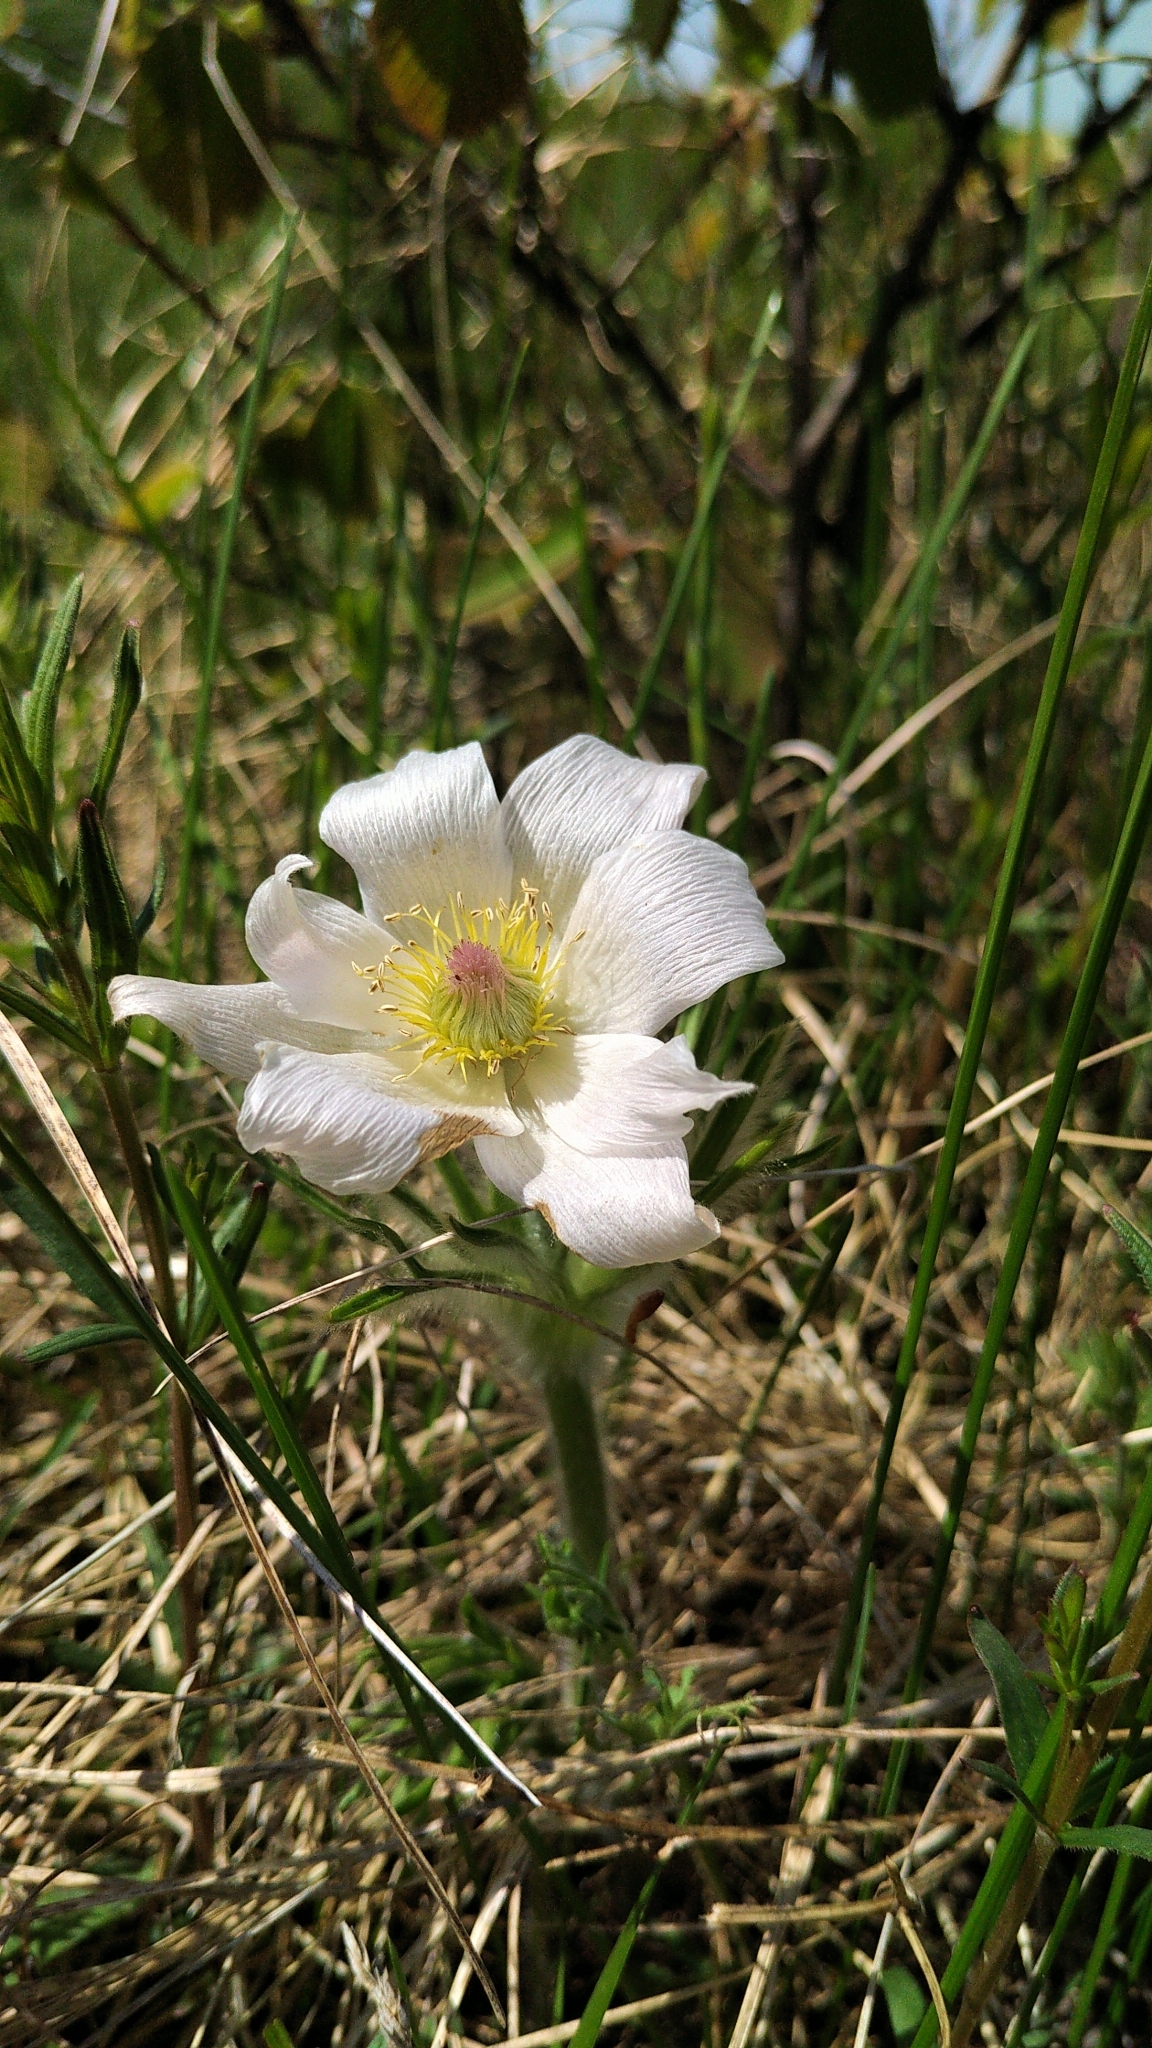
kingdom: Plantae
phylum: Tracheophyta
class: Magnoliopsida
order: Ranunculales
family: Ranunculaceae
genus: Pulsatilla
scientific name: Pulsatilla nuttalliana
